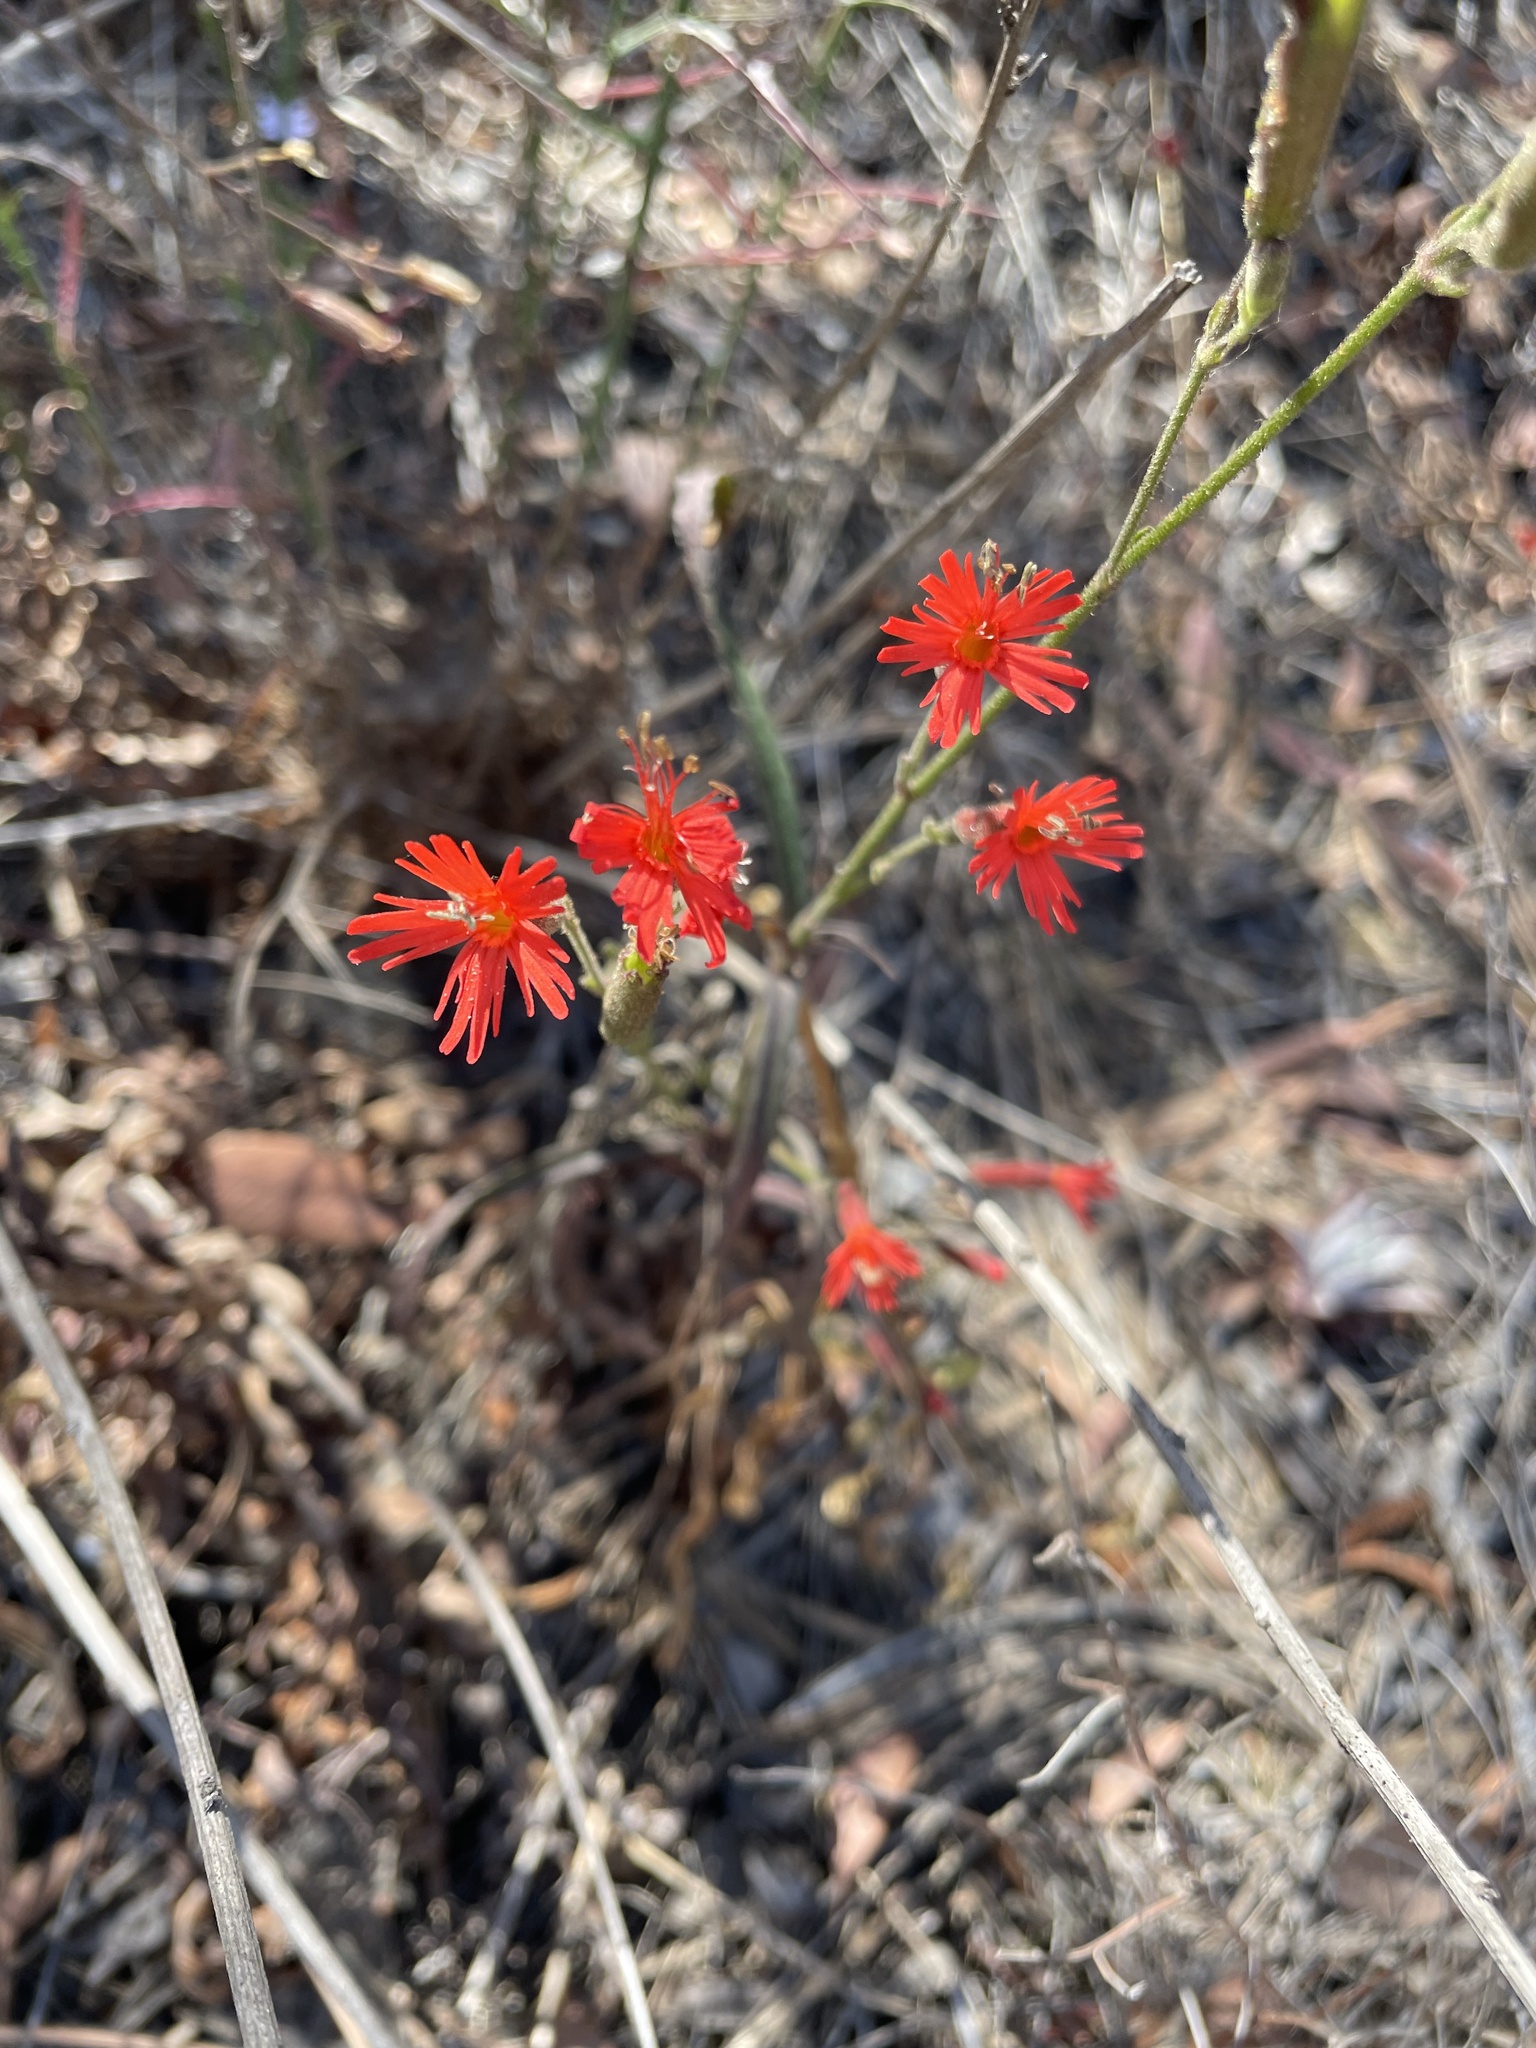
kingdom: Plantae
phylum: Tracheophyta
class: Magnoliopsida
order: Caryophyllales
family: Caryophyllaceae
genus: Silene
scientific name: Silene laciniata
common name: Indian-pink
